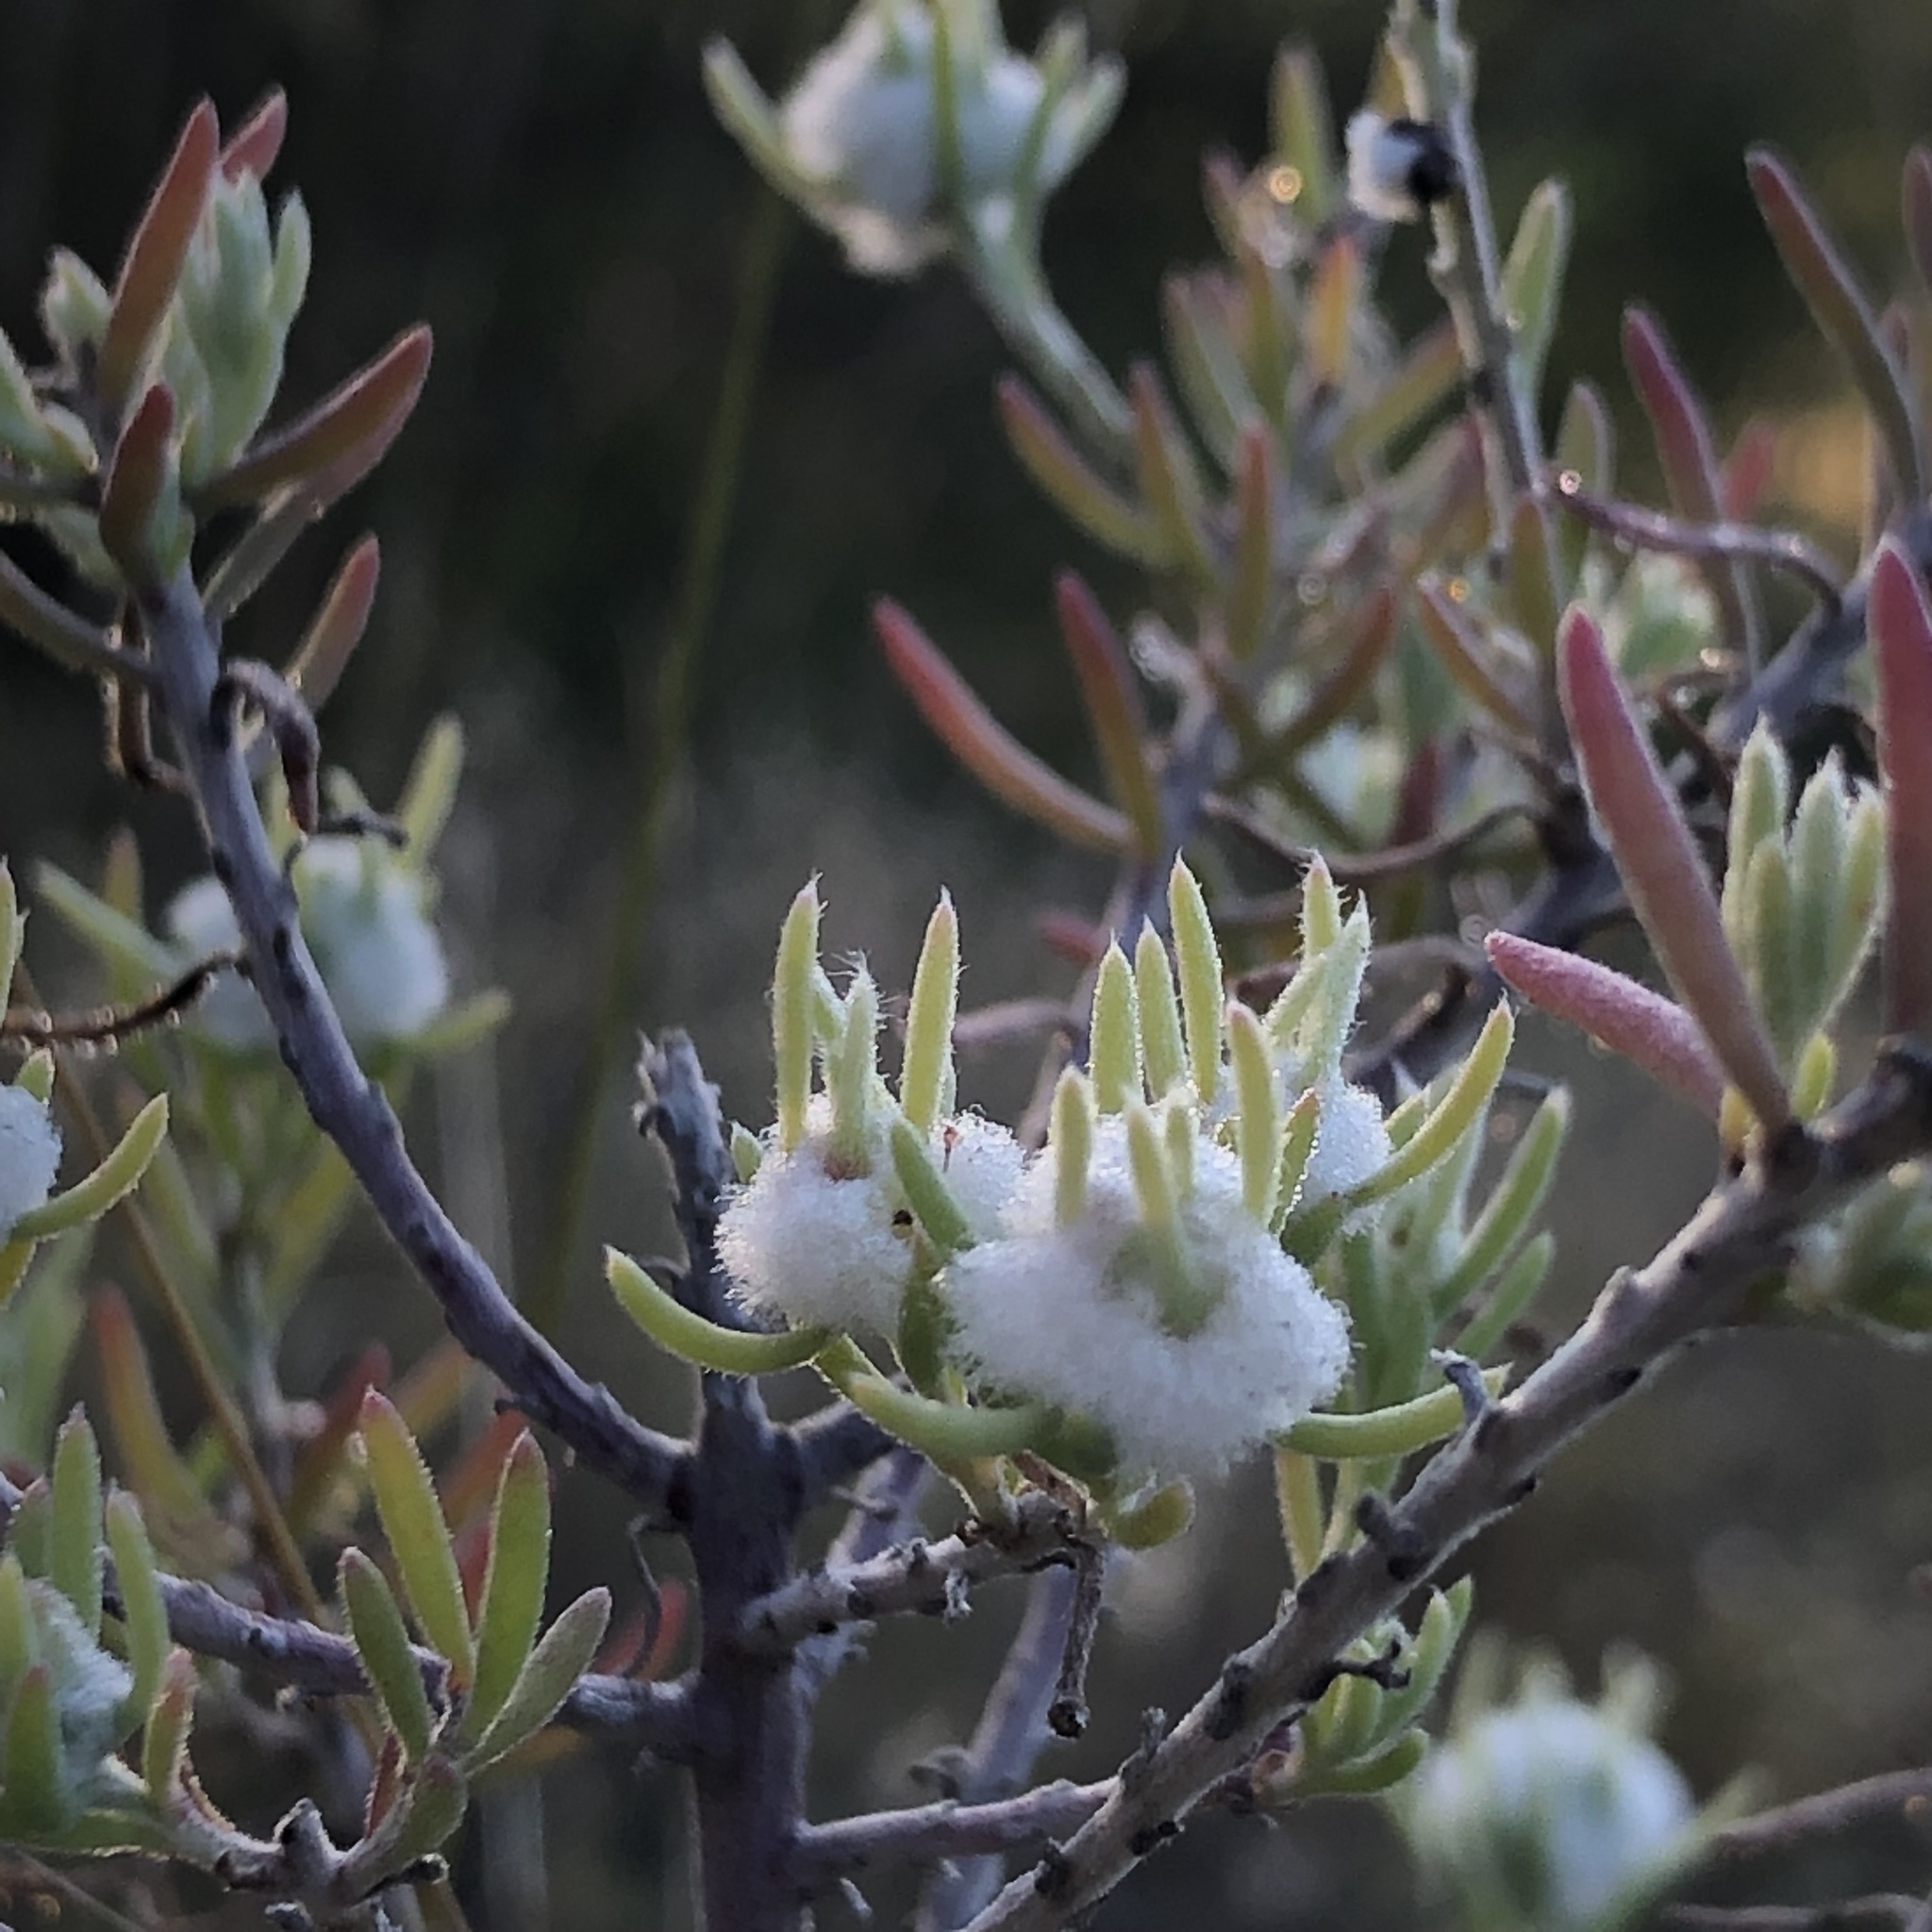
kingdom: Plantae
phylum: Tracheophyta
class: Magnoliopsida
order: Caryophyllales
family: Amaranthaceae
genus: Enchylaena
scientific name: Enchylaena tomentosa
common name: Ruby saltbush
